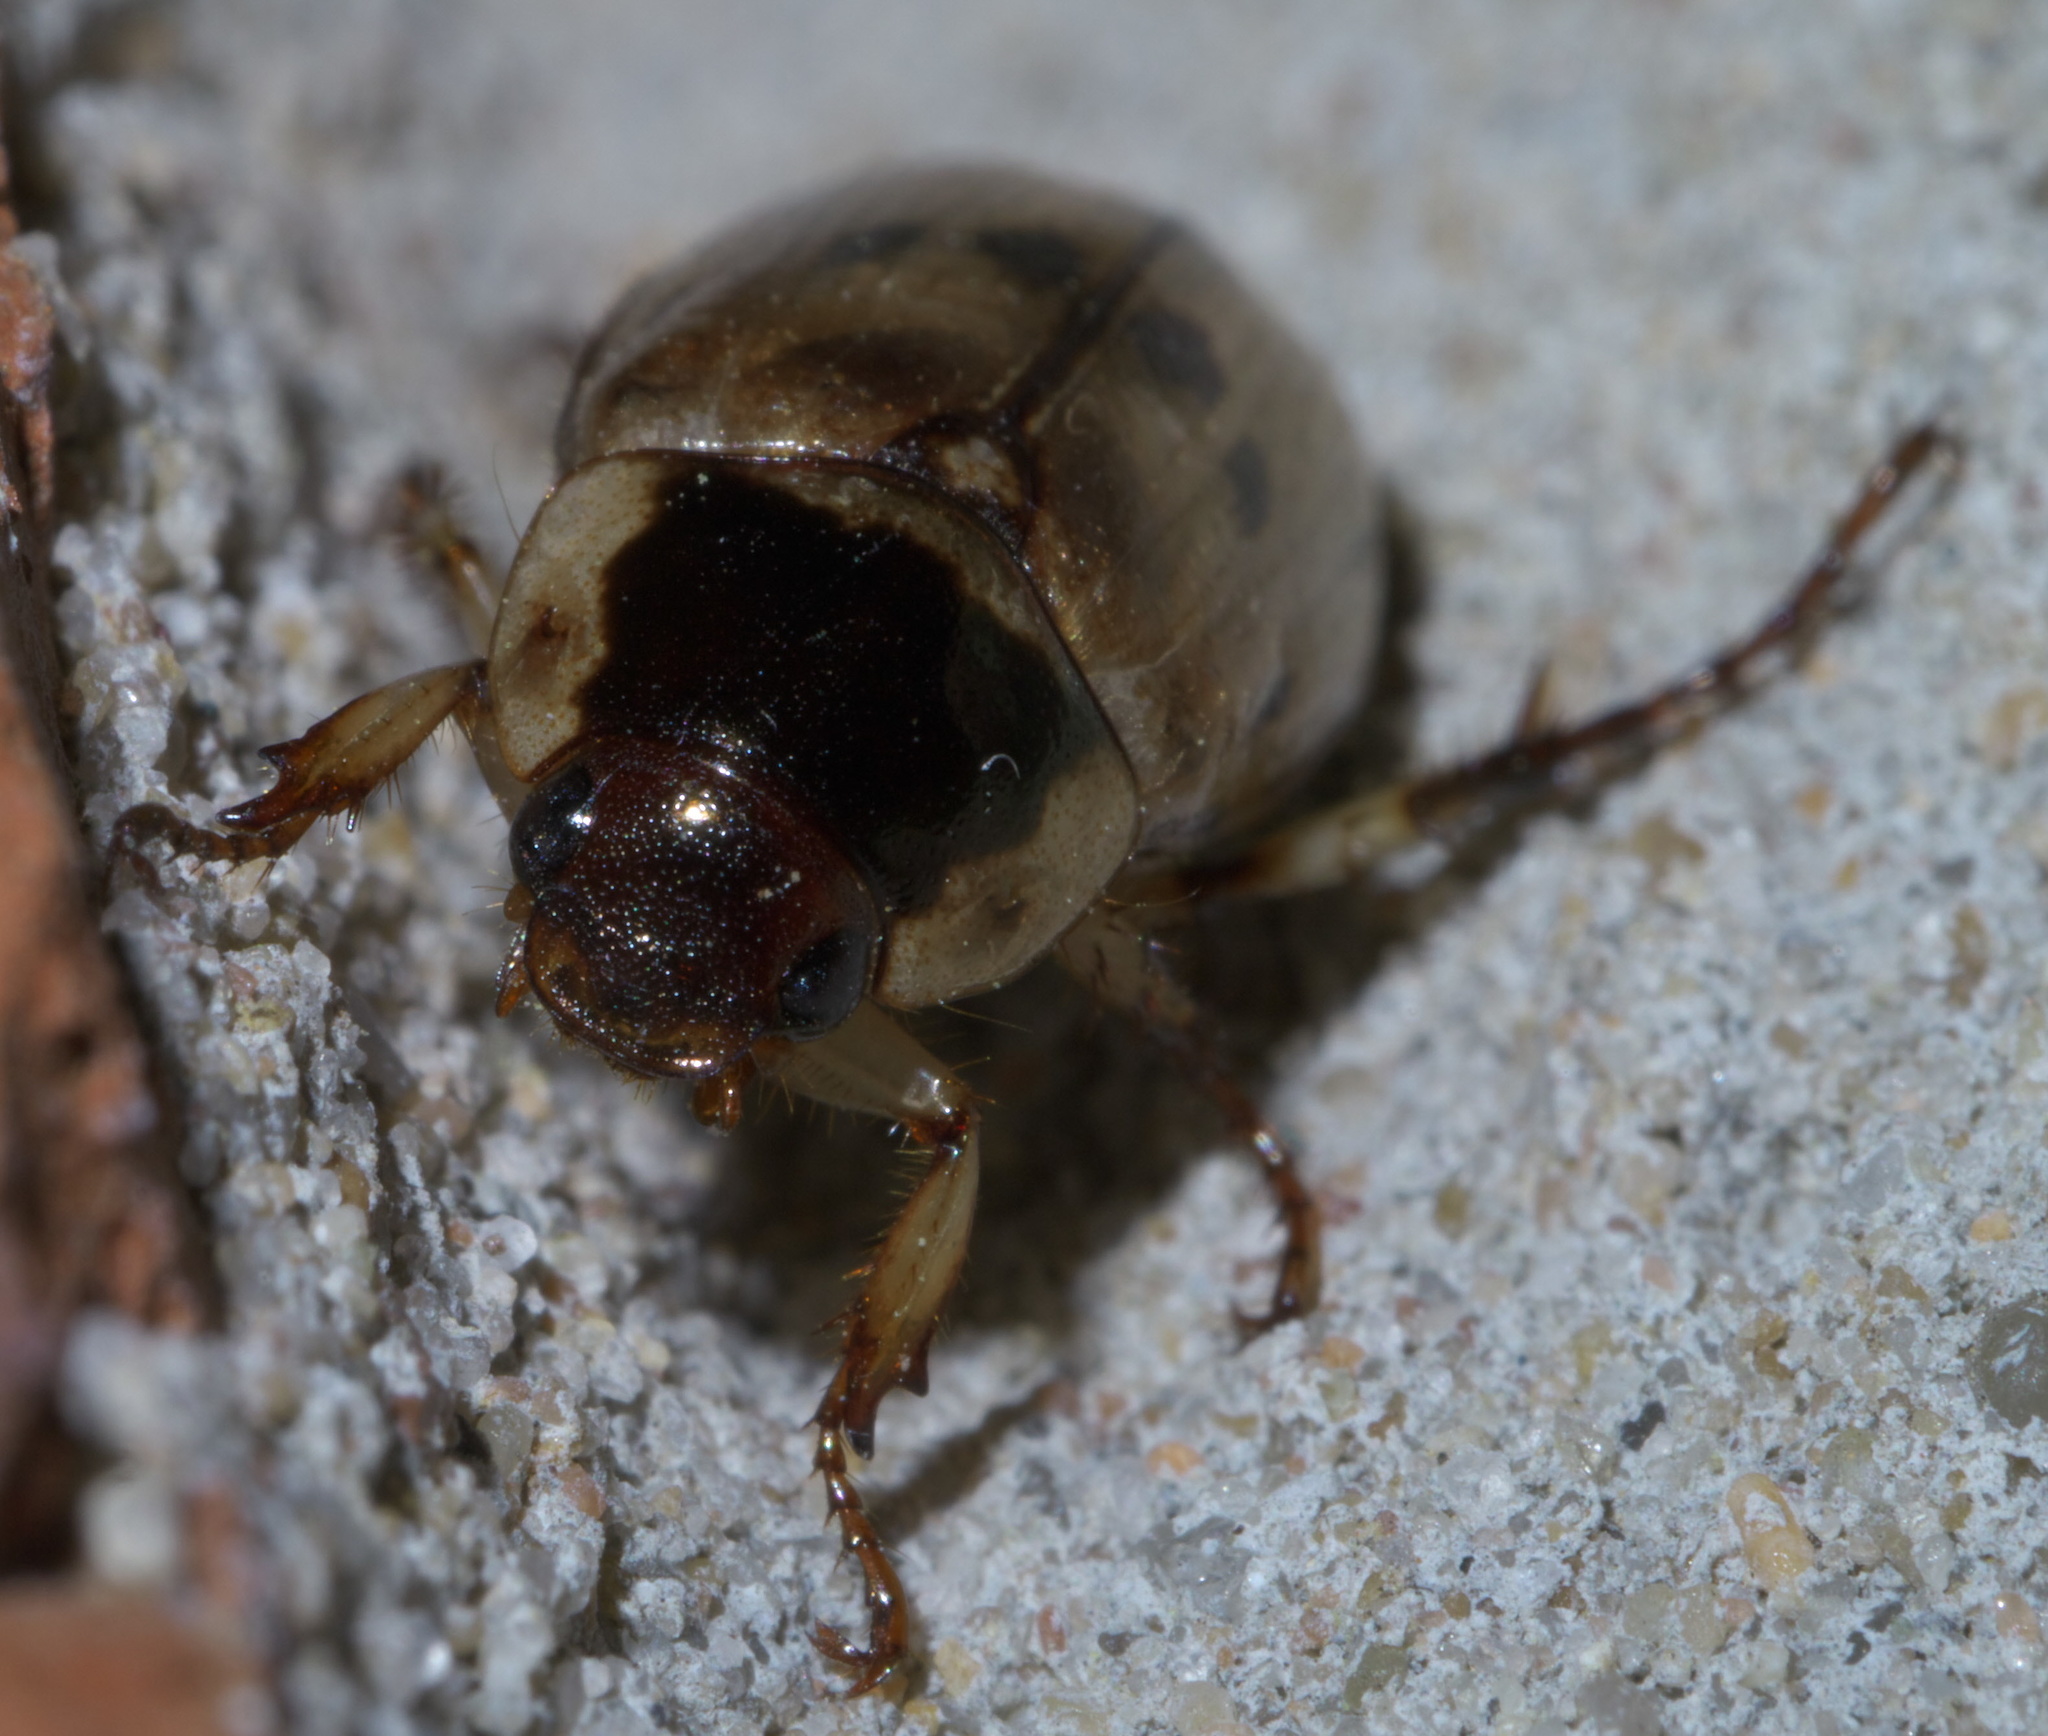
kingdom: Animalia
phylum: Arthropoda
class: Insecta
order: Coleoptera
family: Scarabaeidae
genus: Paranomala
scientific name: Paranomala undulata
